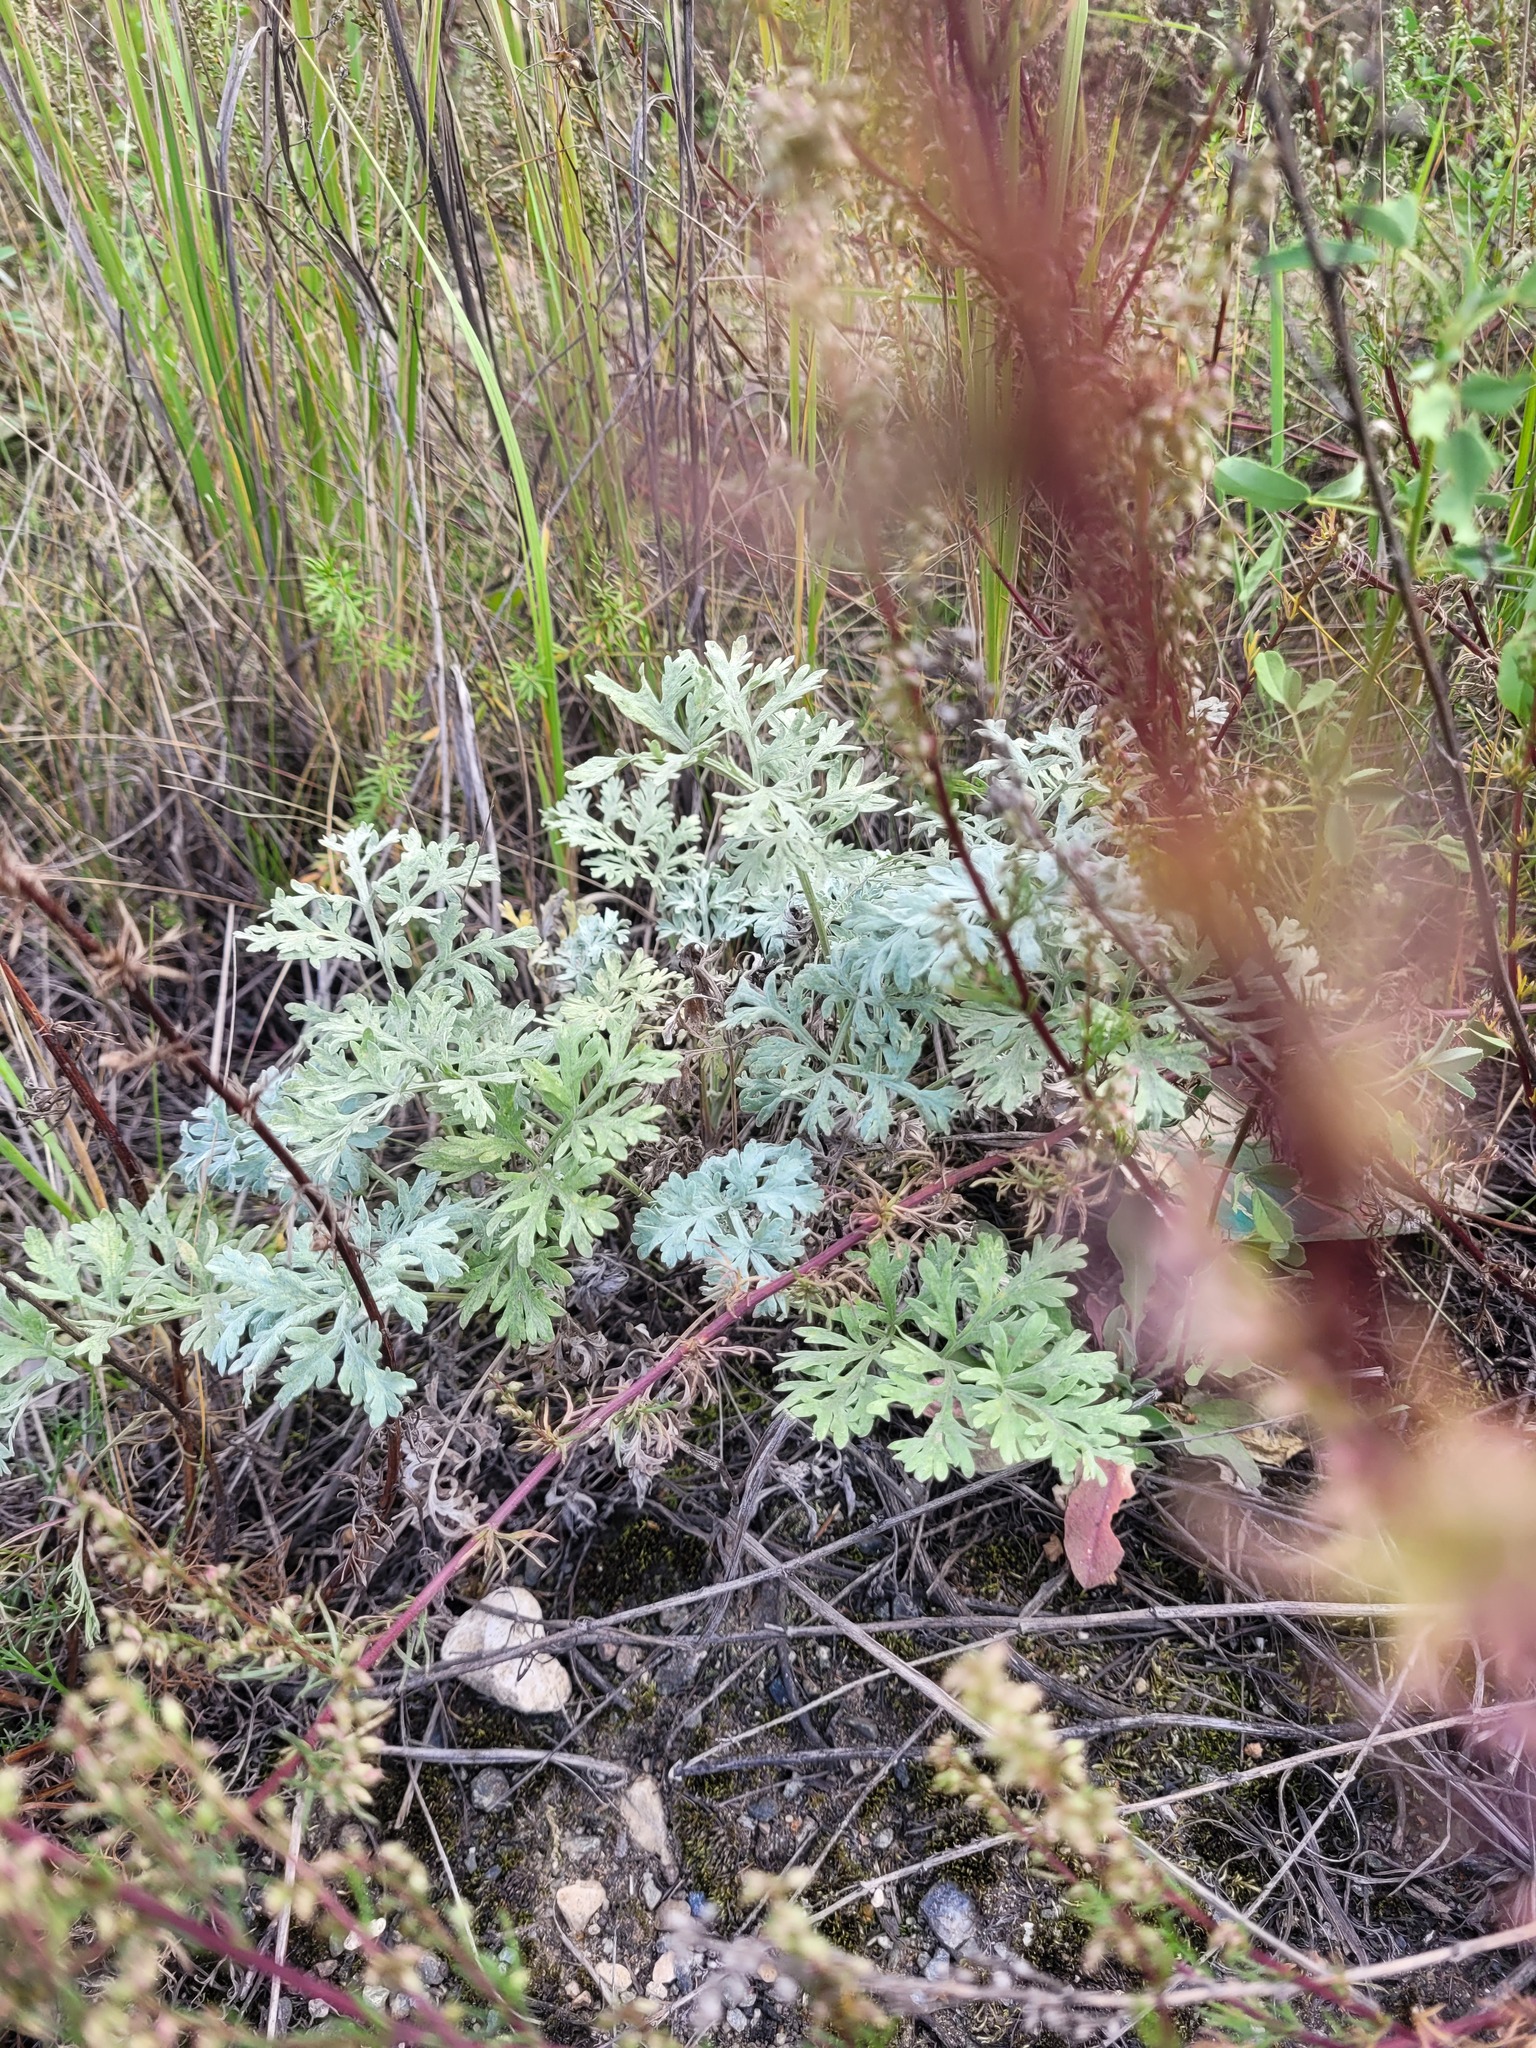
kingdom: Plantae
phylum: Tracheophyta
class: Magnoliopsida
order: Asterales
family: Asteraceae
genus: Artemisia
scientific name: Artemisia absinthium
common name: Wormwood
